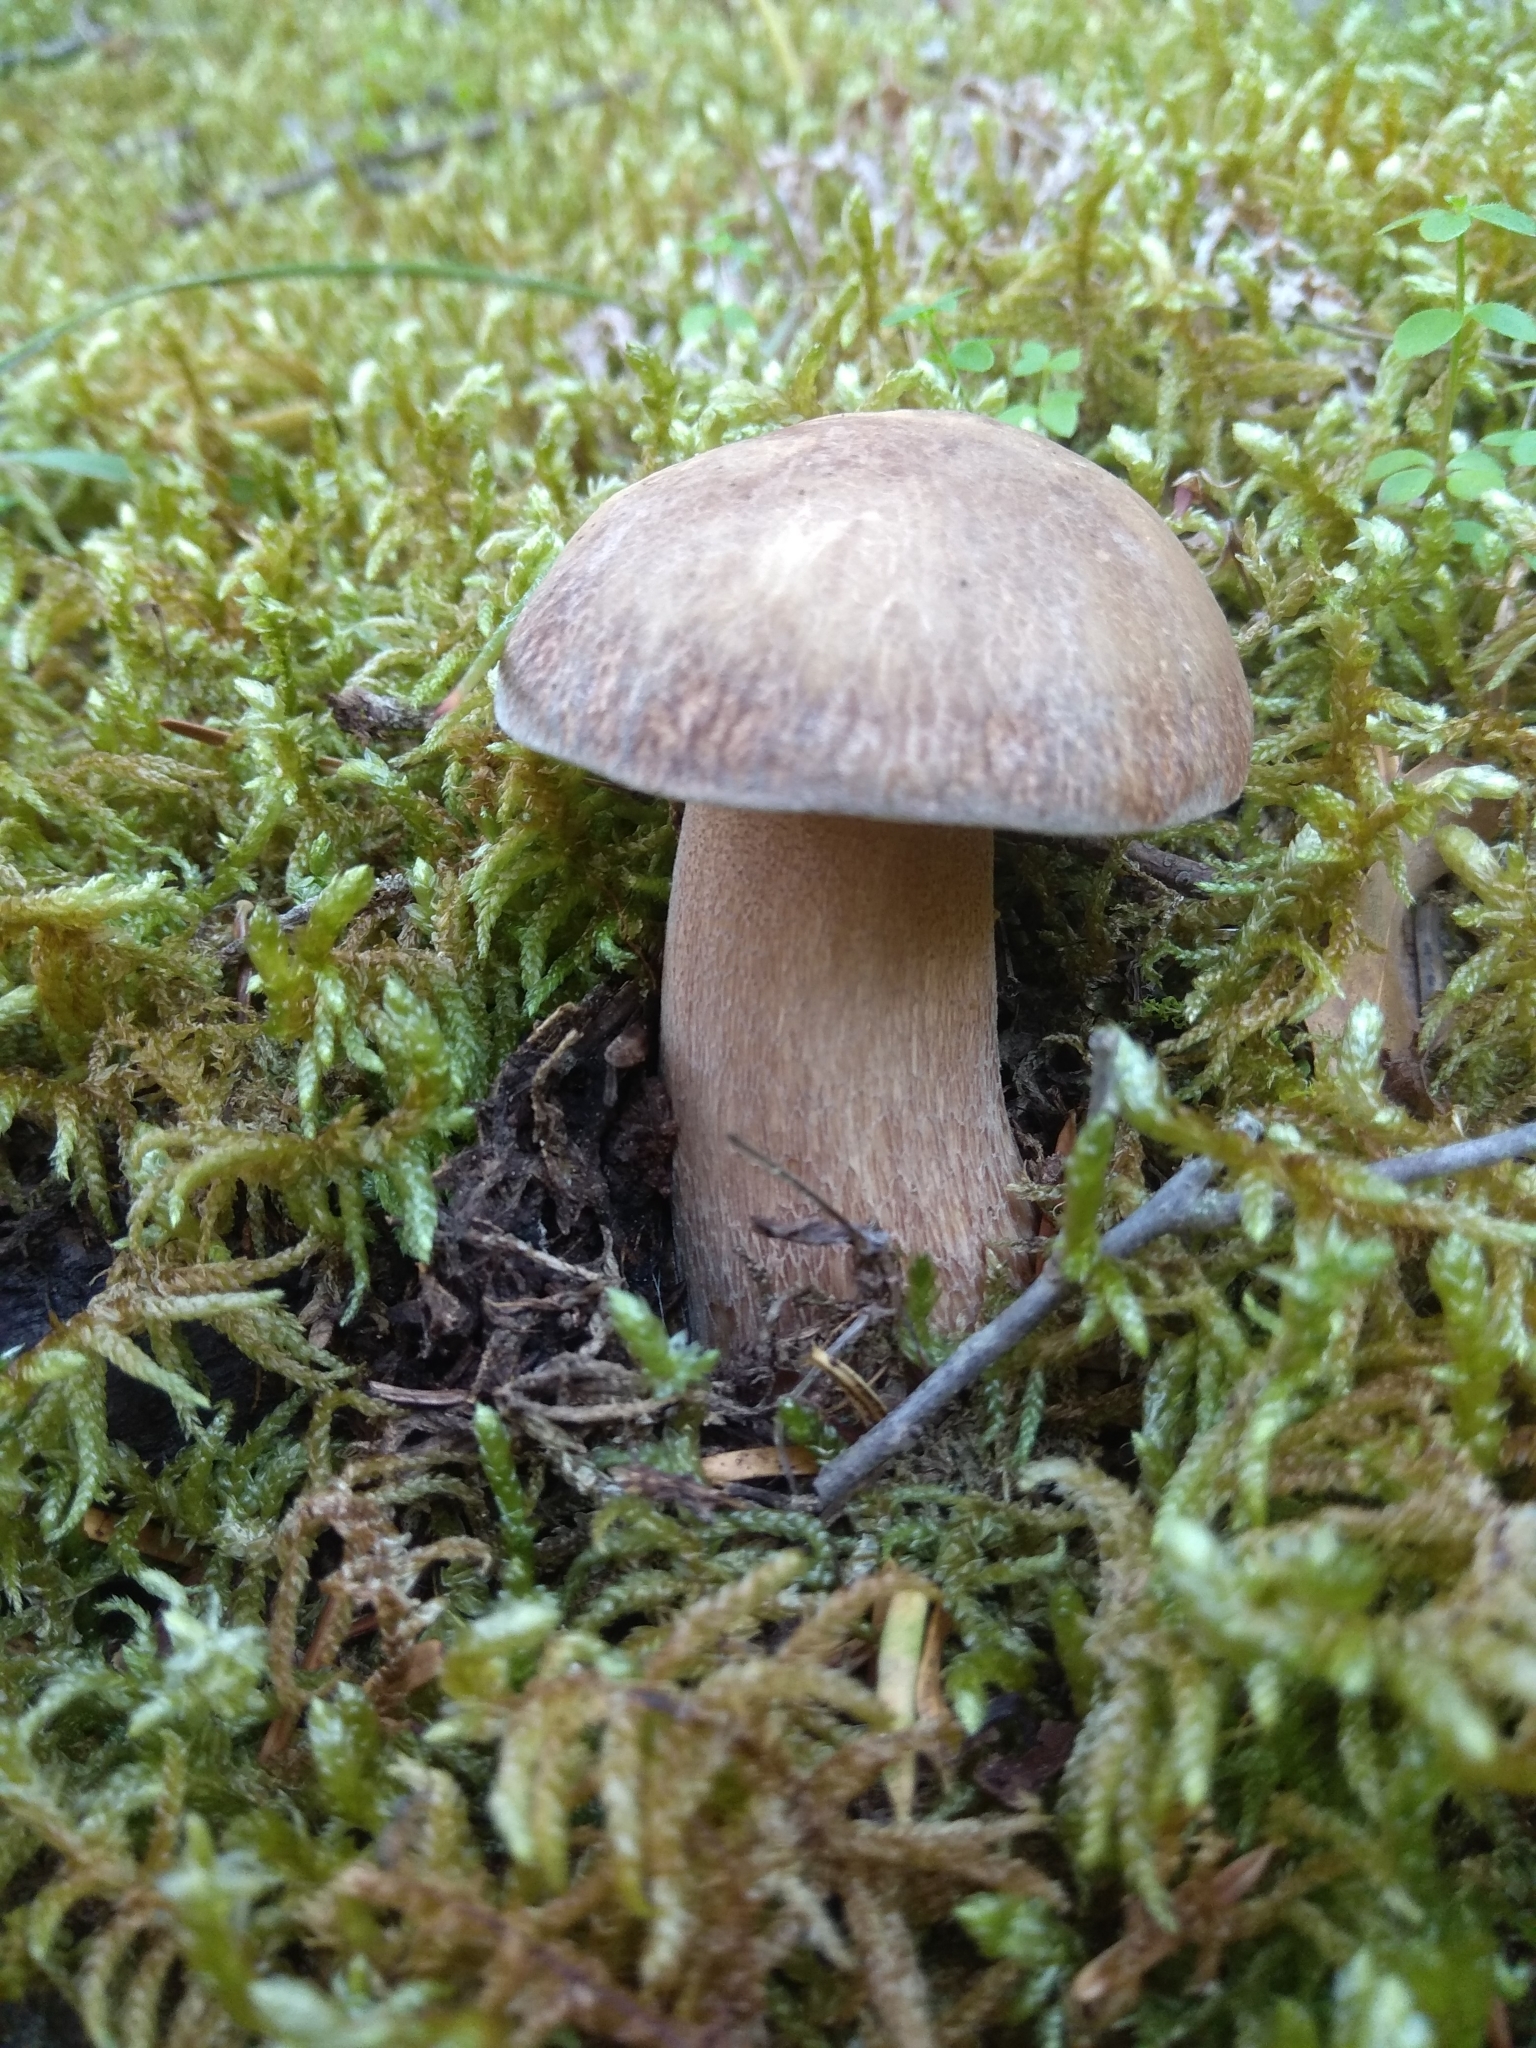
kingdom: Fungi
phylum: Basidiomycota
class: Agaricomycetes
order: Boletales
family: Boletaceae
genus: Boletus
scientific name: Boletus reticulatus
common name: Summer bolete
